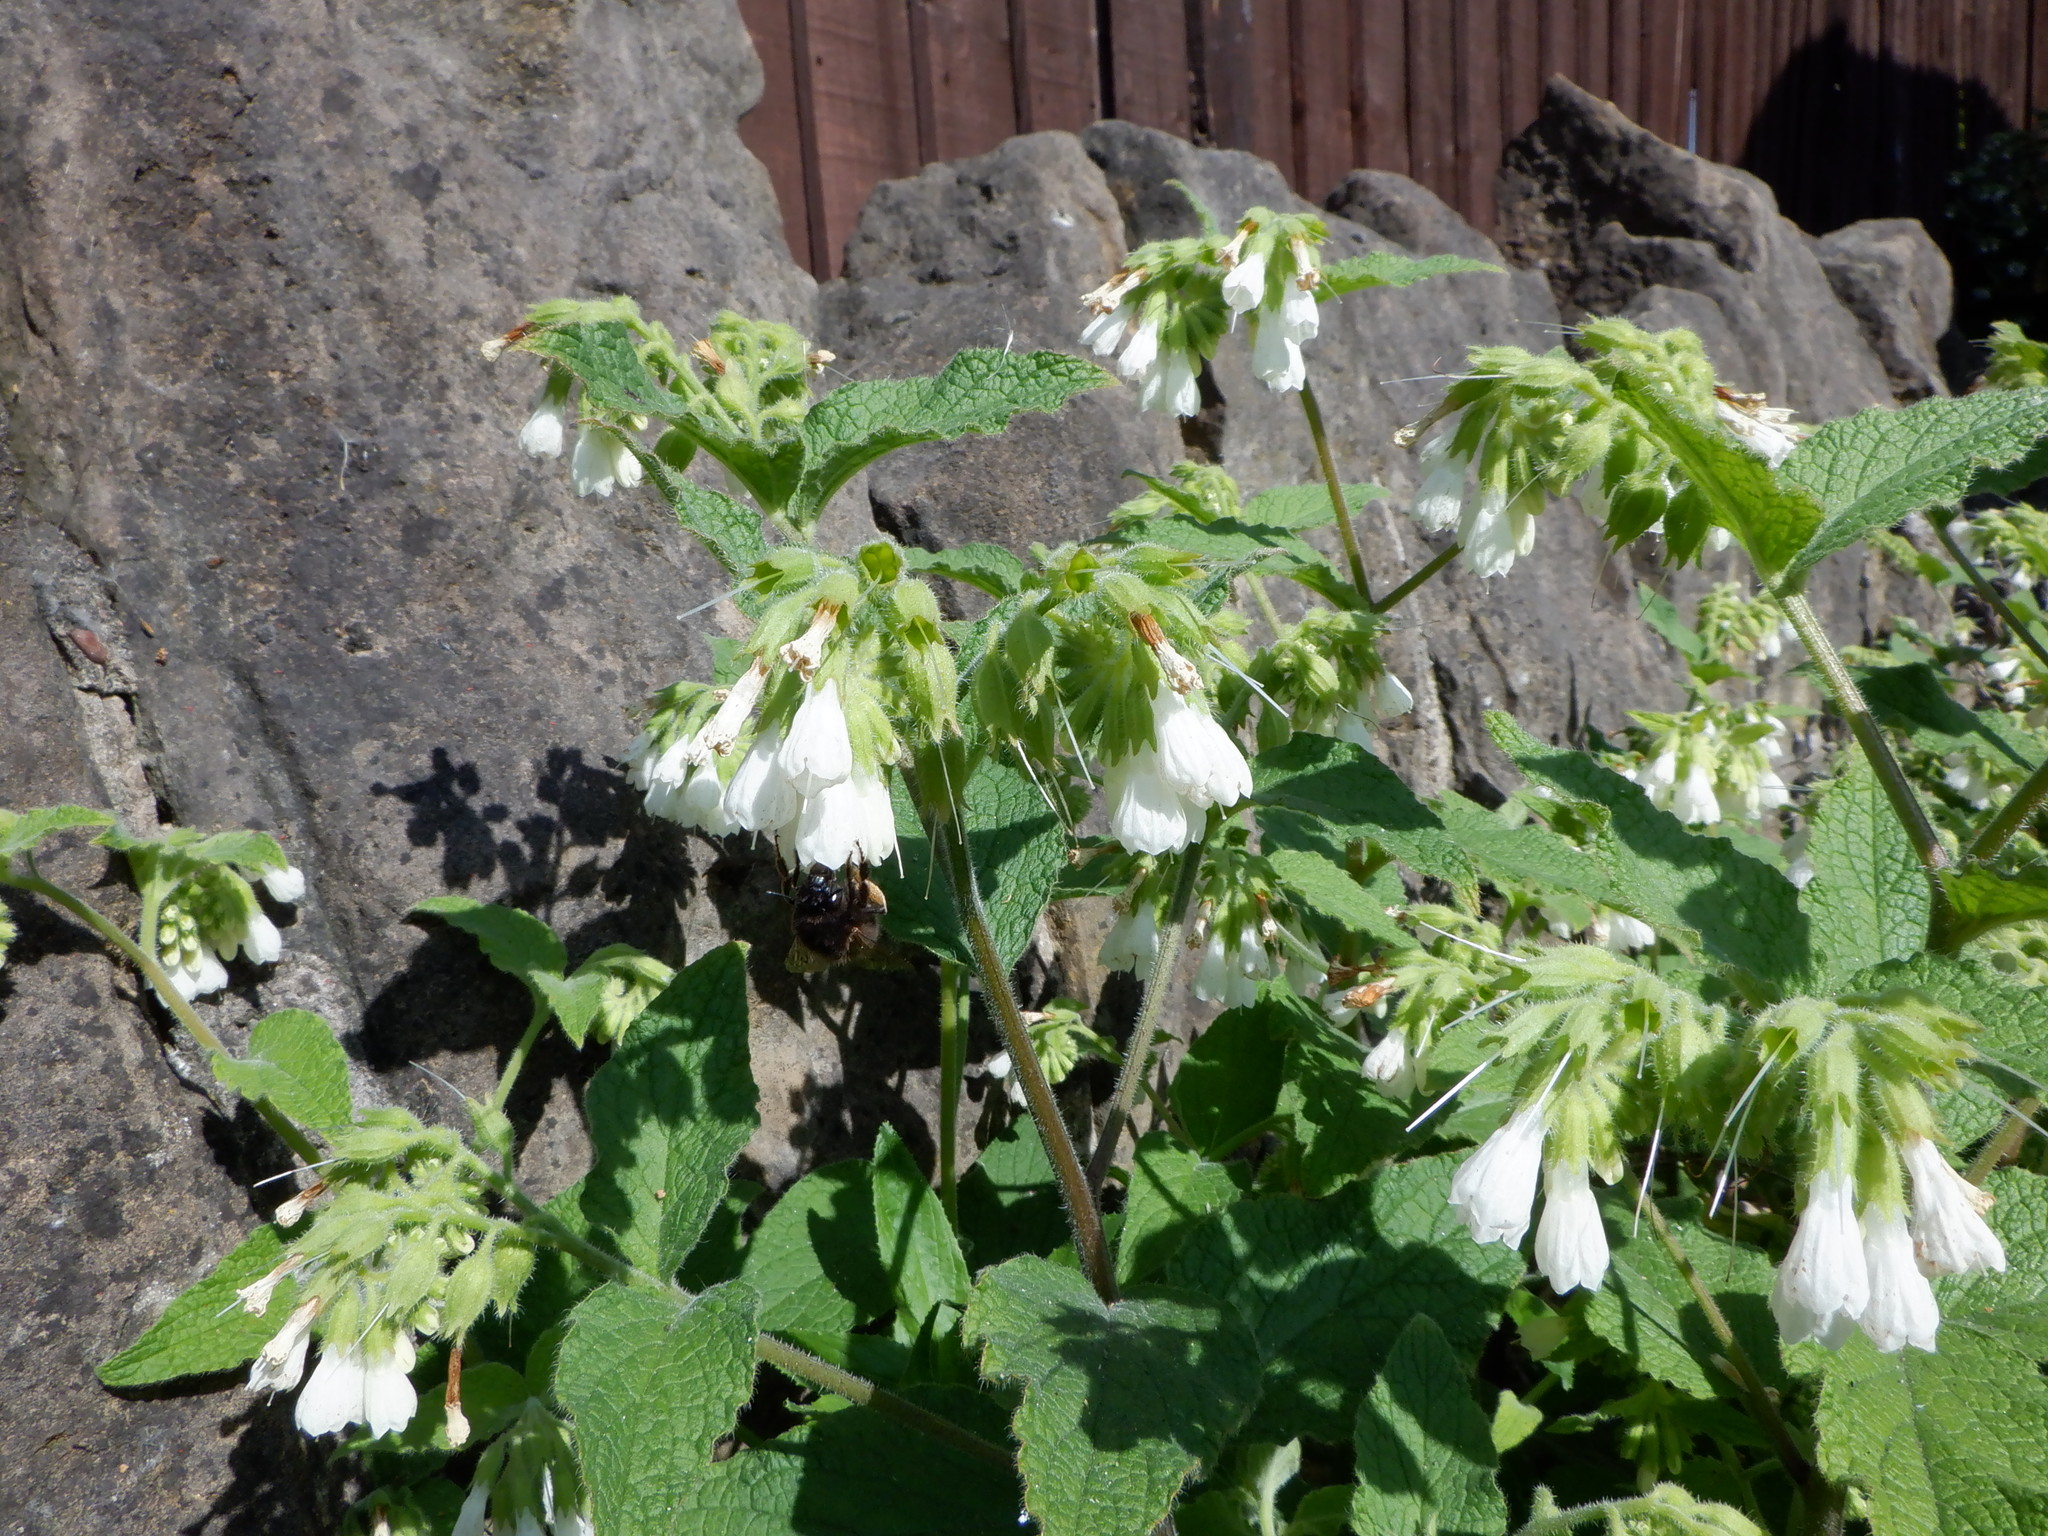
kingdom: Plantae
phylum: Tracheophyta
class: Magnoliopsida
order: Boraginales
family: Boraginaceae
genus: Symphytum
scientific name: Symphytum orientale
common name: White comfrey
